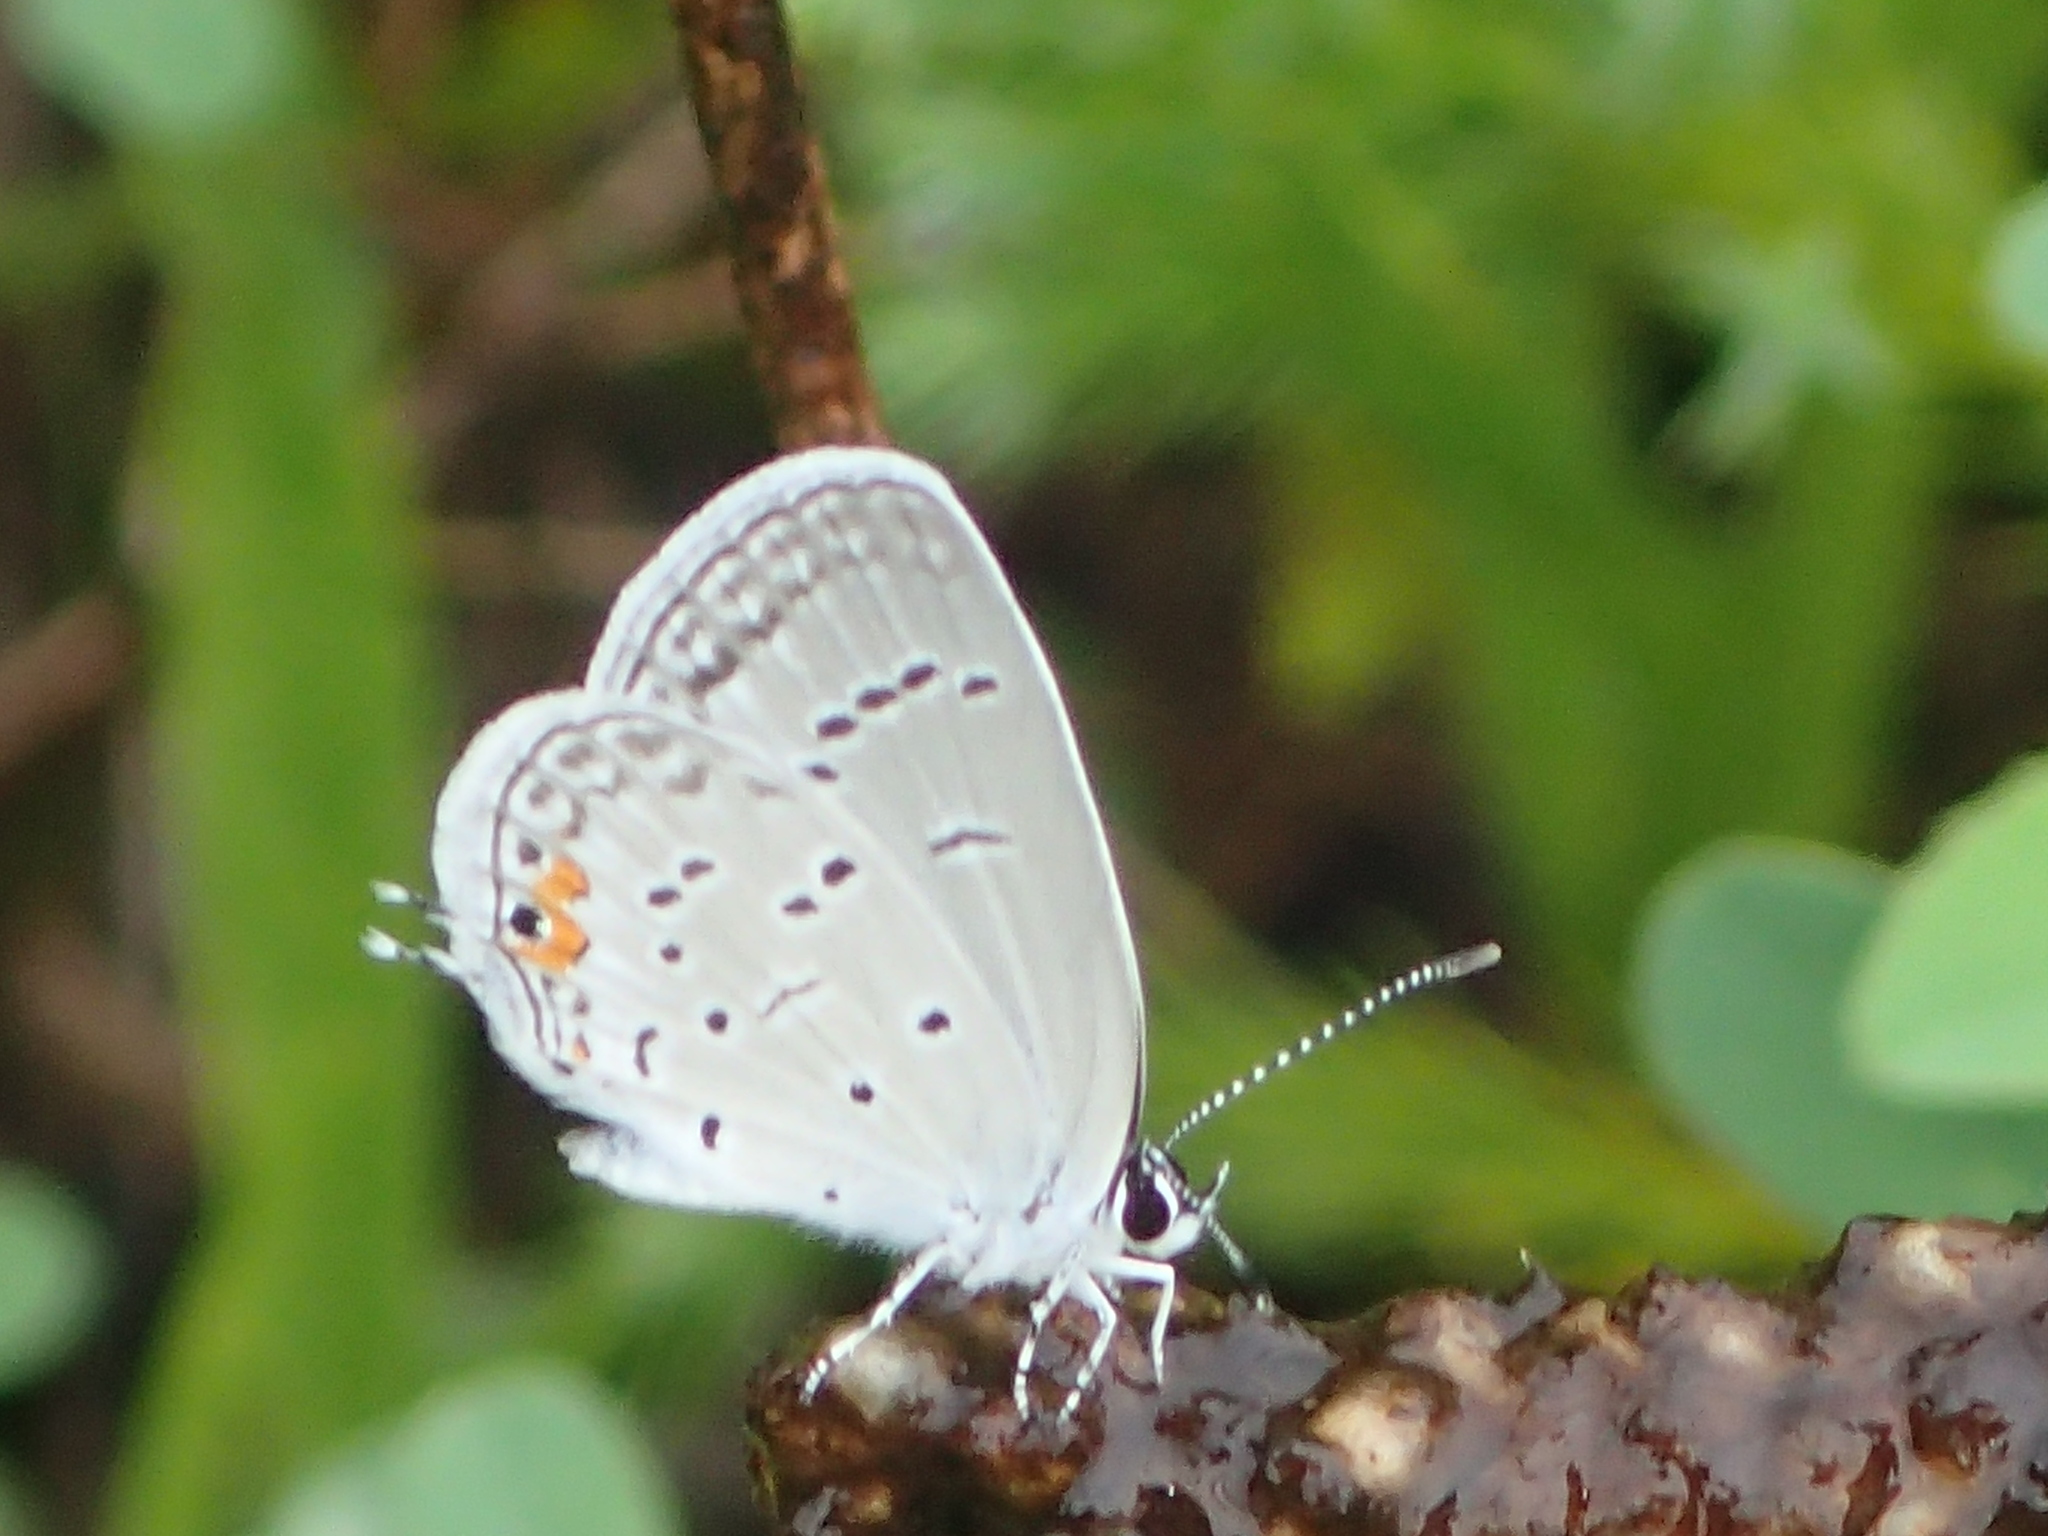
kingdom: Animalia
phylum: Arthropoda
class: Insecta
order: Lepidoptera
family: Lycaenidae
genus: Elkalyce
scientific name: Elkalyce comyntas
